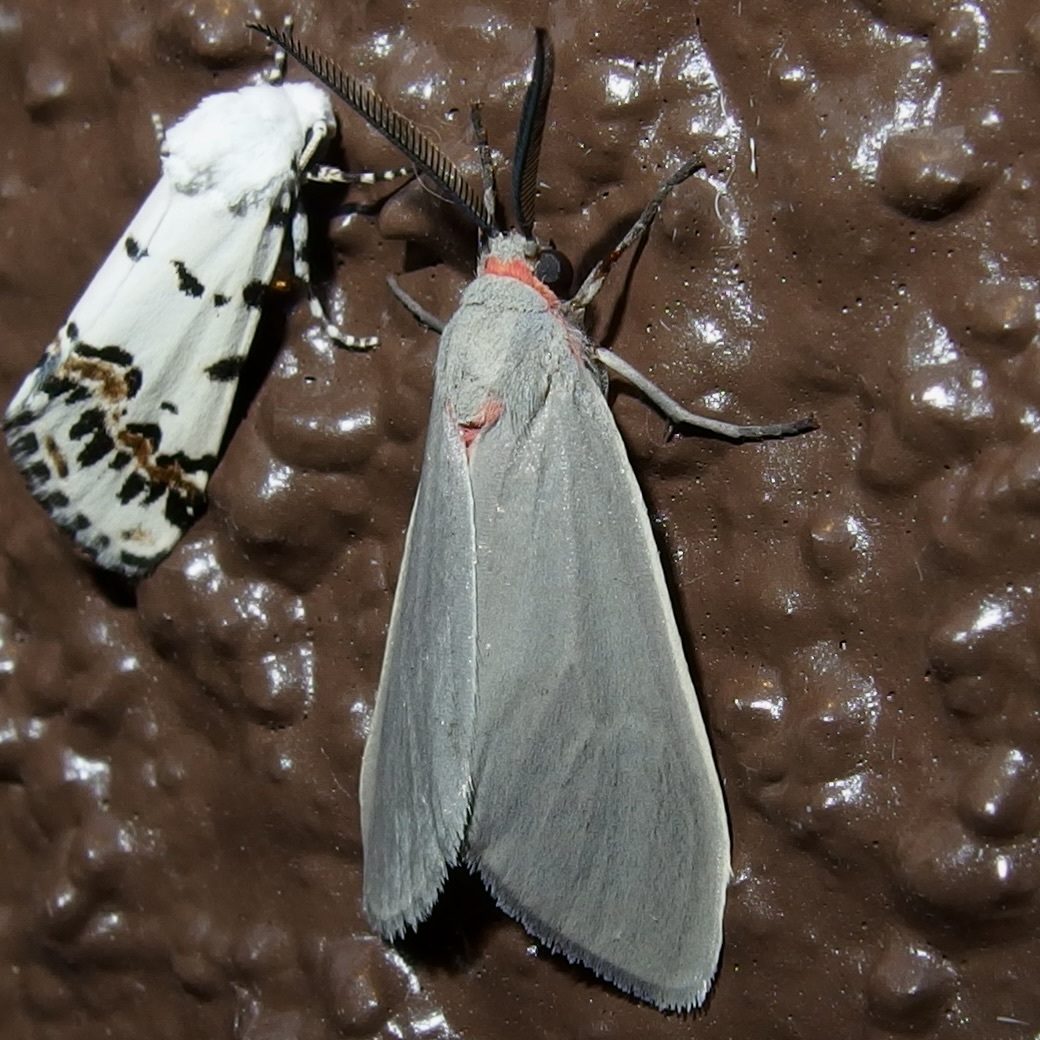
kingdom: Animalia
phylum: Arthropoda
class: Insecta
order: Lepidoptera
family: Erebidae
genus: Pygarctia
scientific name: Pygarctia murina
